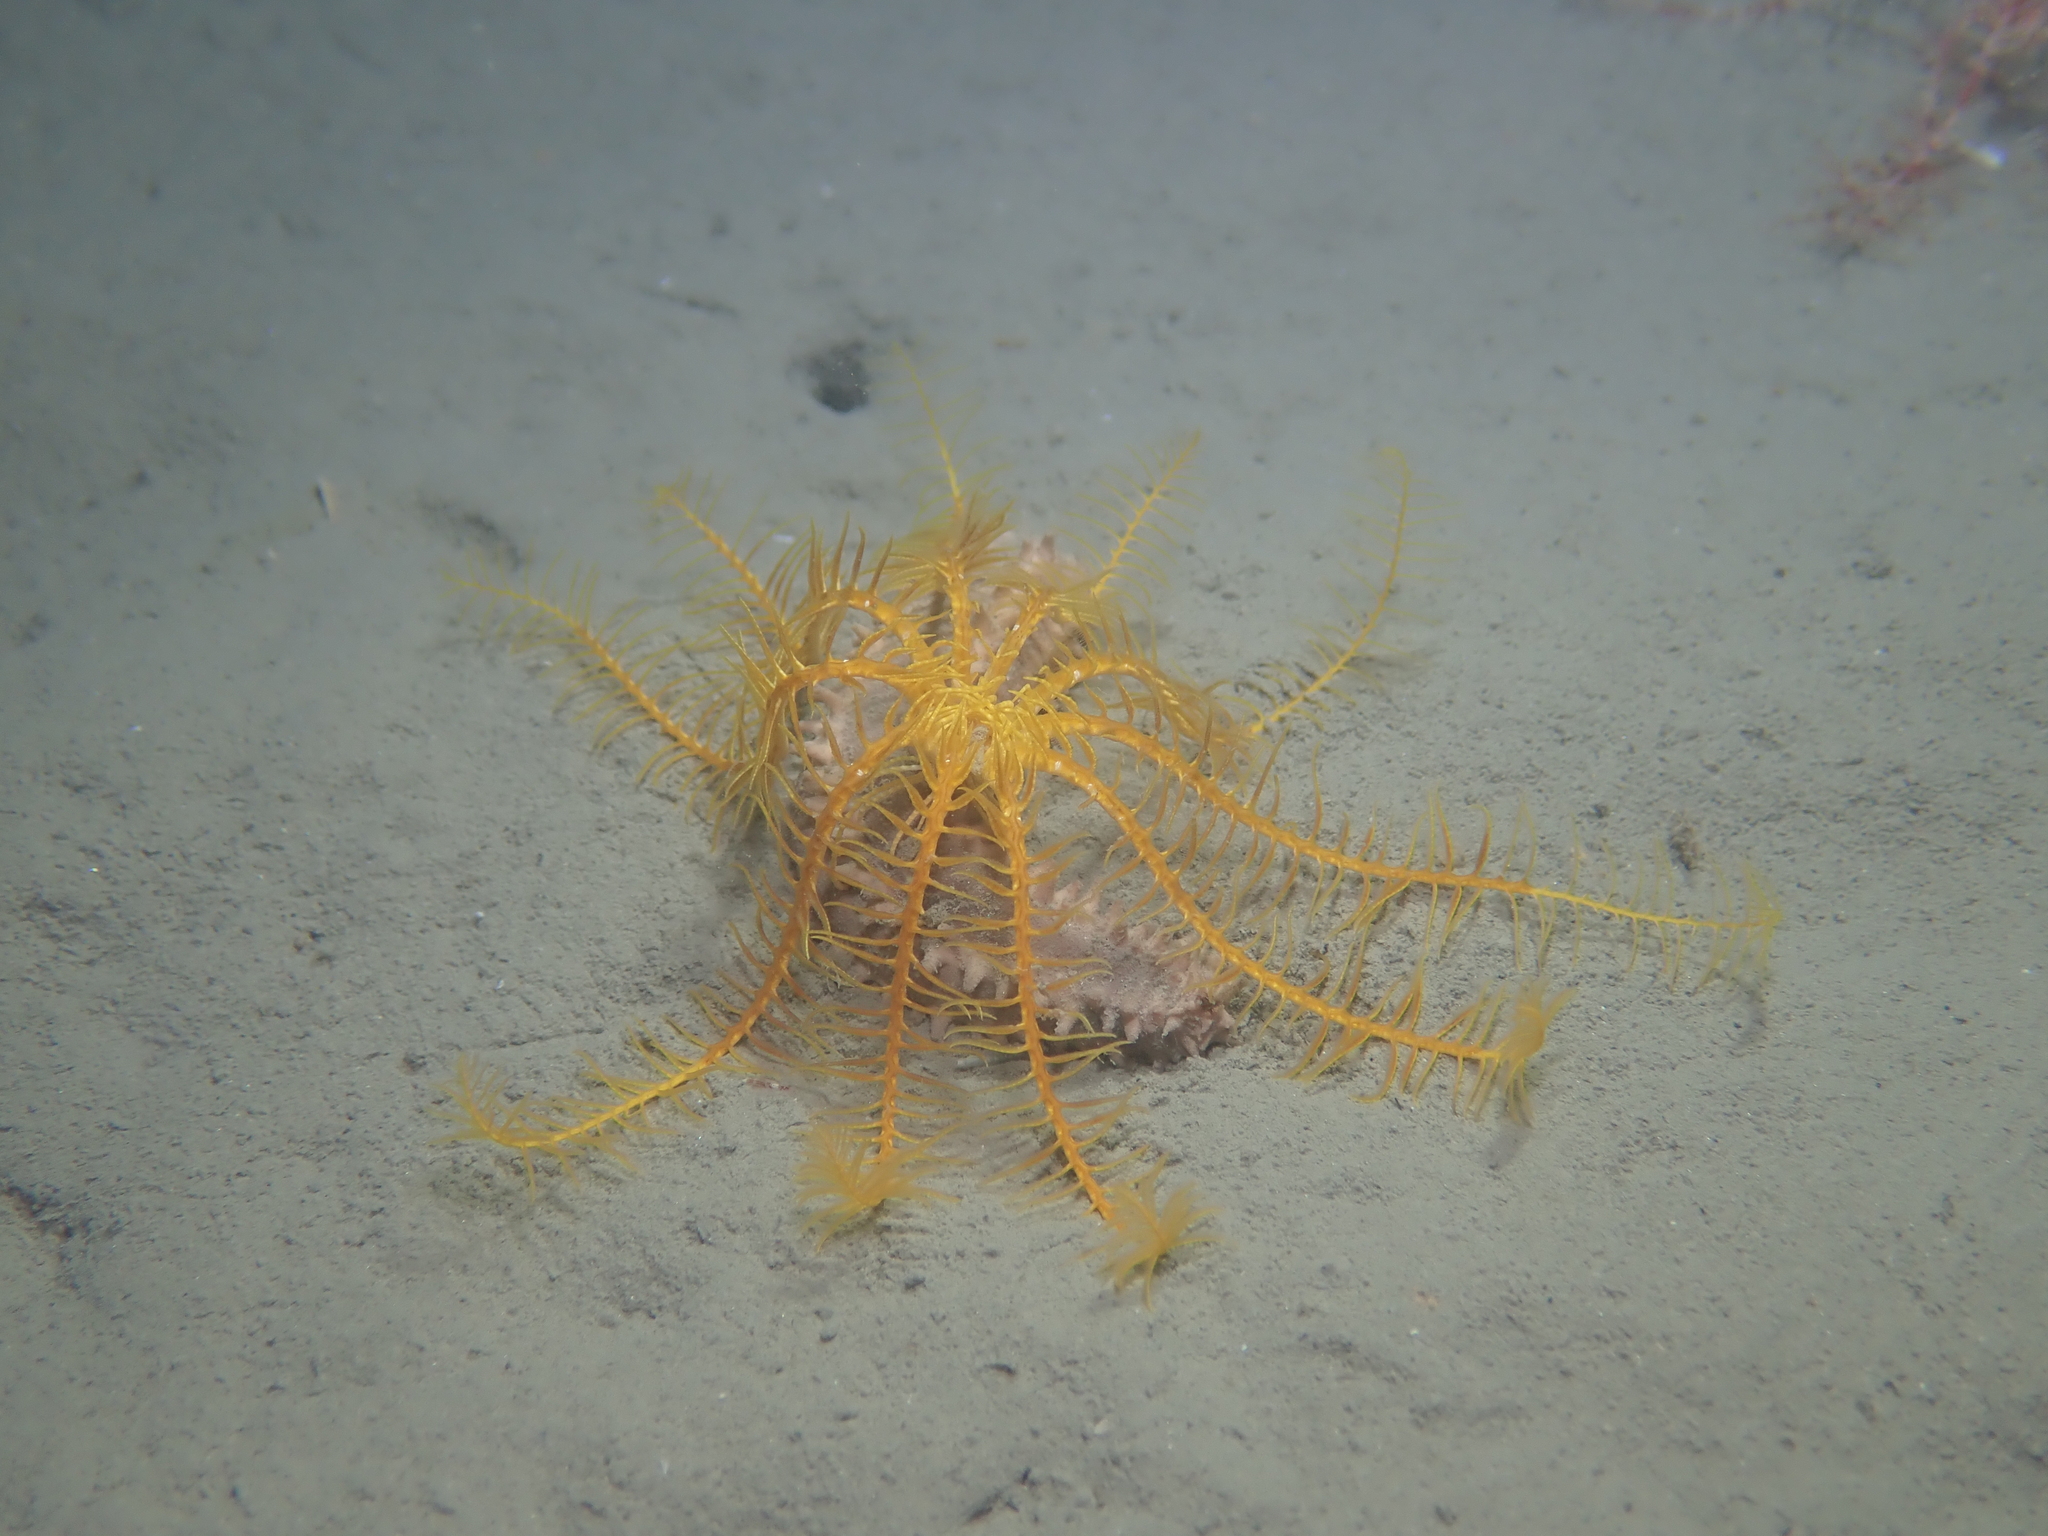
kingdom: Animalia
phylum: Echinodermata
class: Crinoidea
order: Comatulida
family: Antedonidae
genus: Antedon
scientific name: Antedon mediterranea
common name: Feather star
